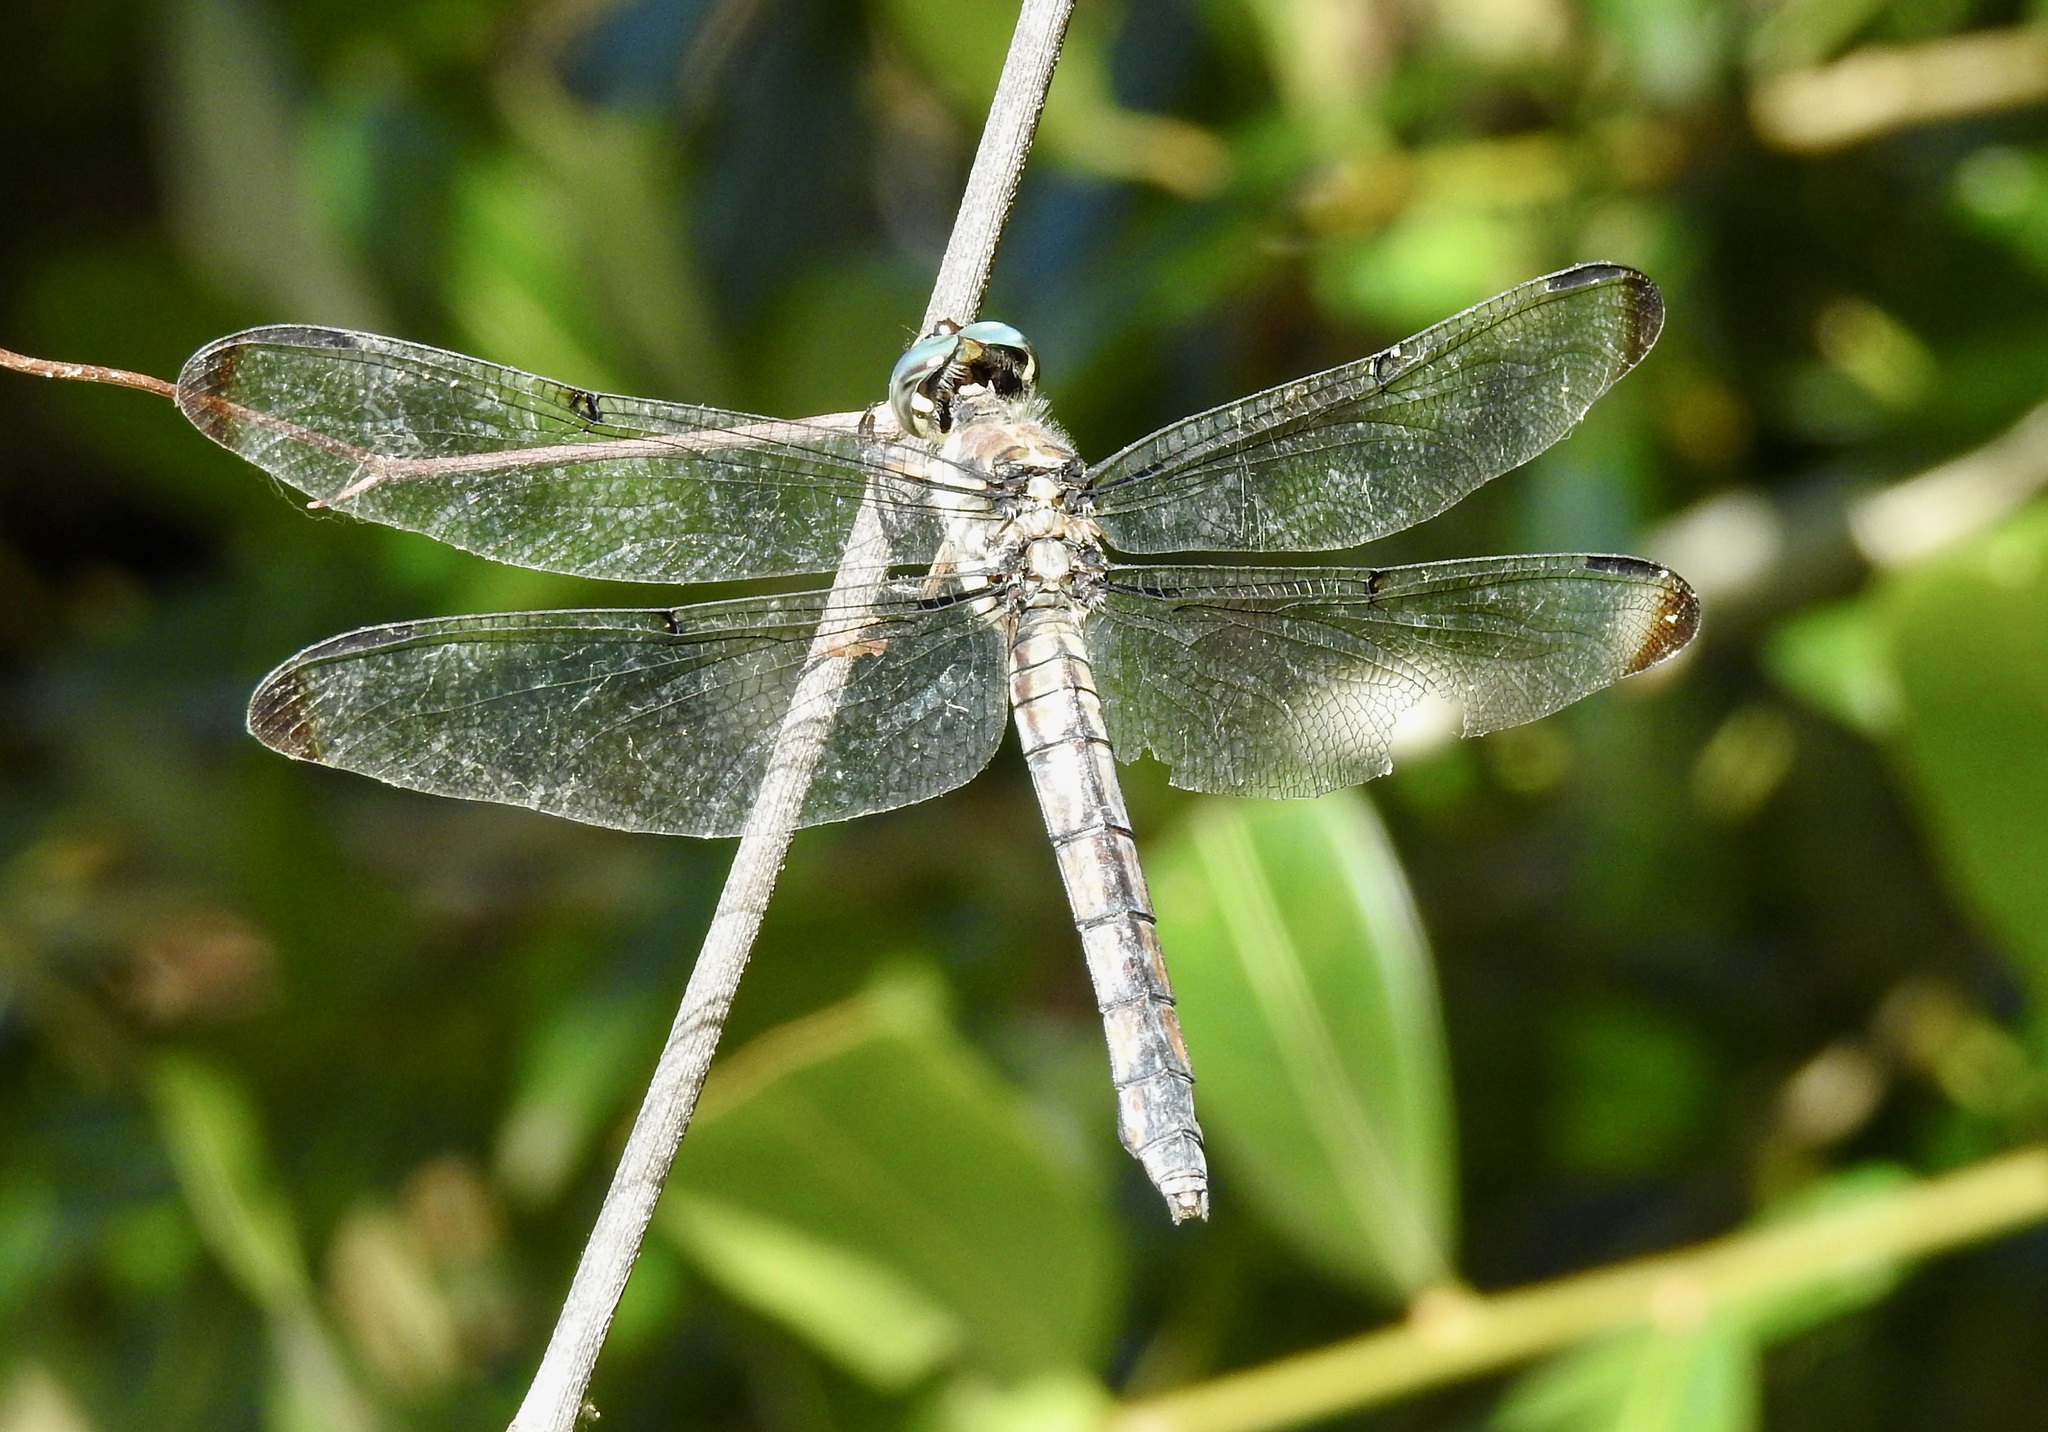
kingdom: Animalia
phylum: Arthropoda
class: Insecta
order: Odonata
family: Libellulidae
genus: Libellula
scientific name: Libellula vibrans
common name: Great blue skimmer
